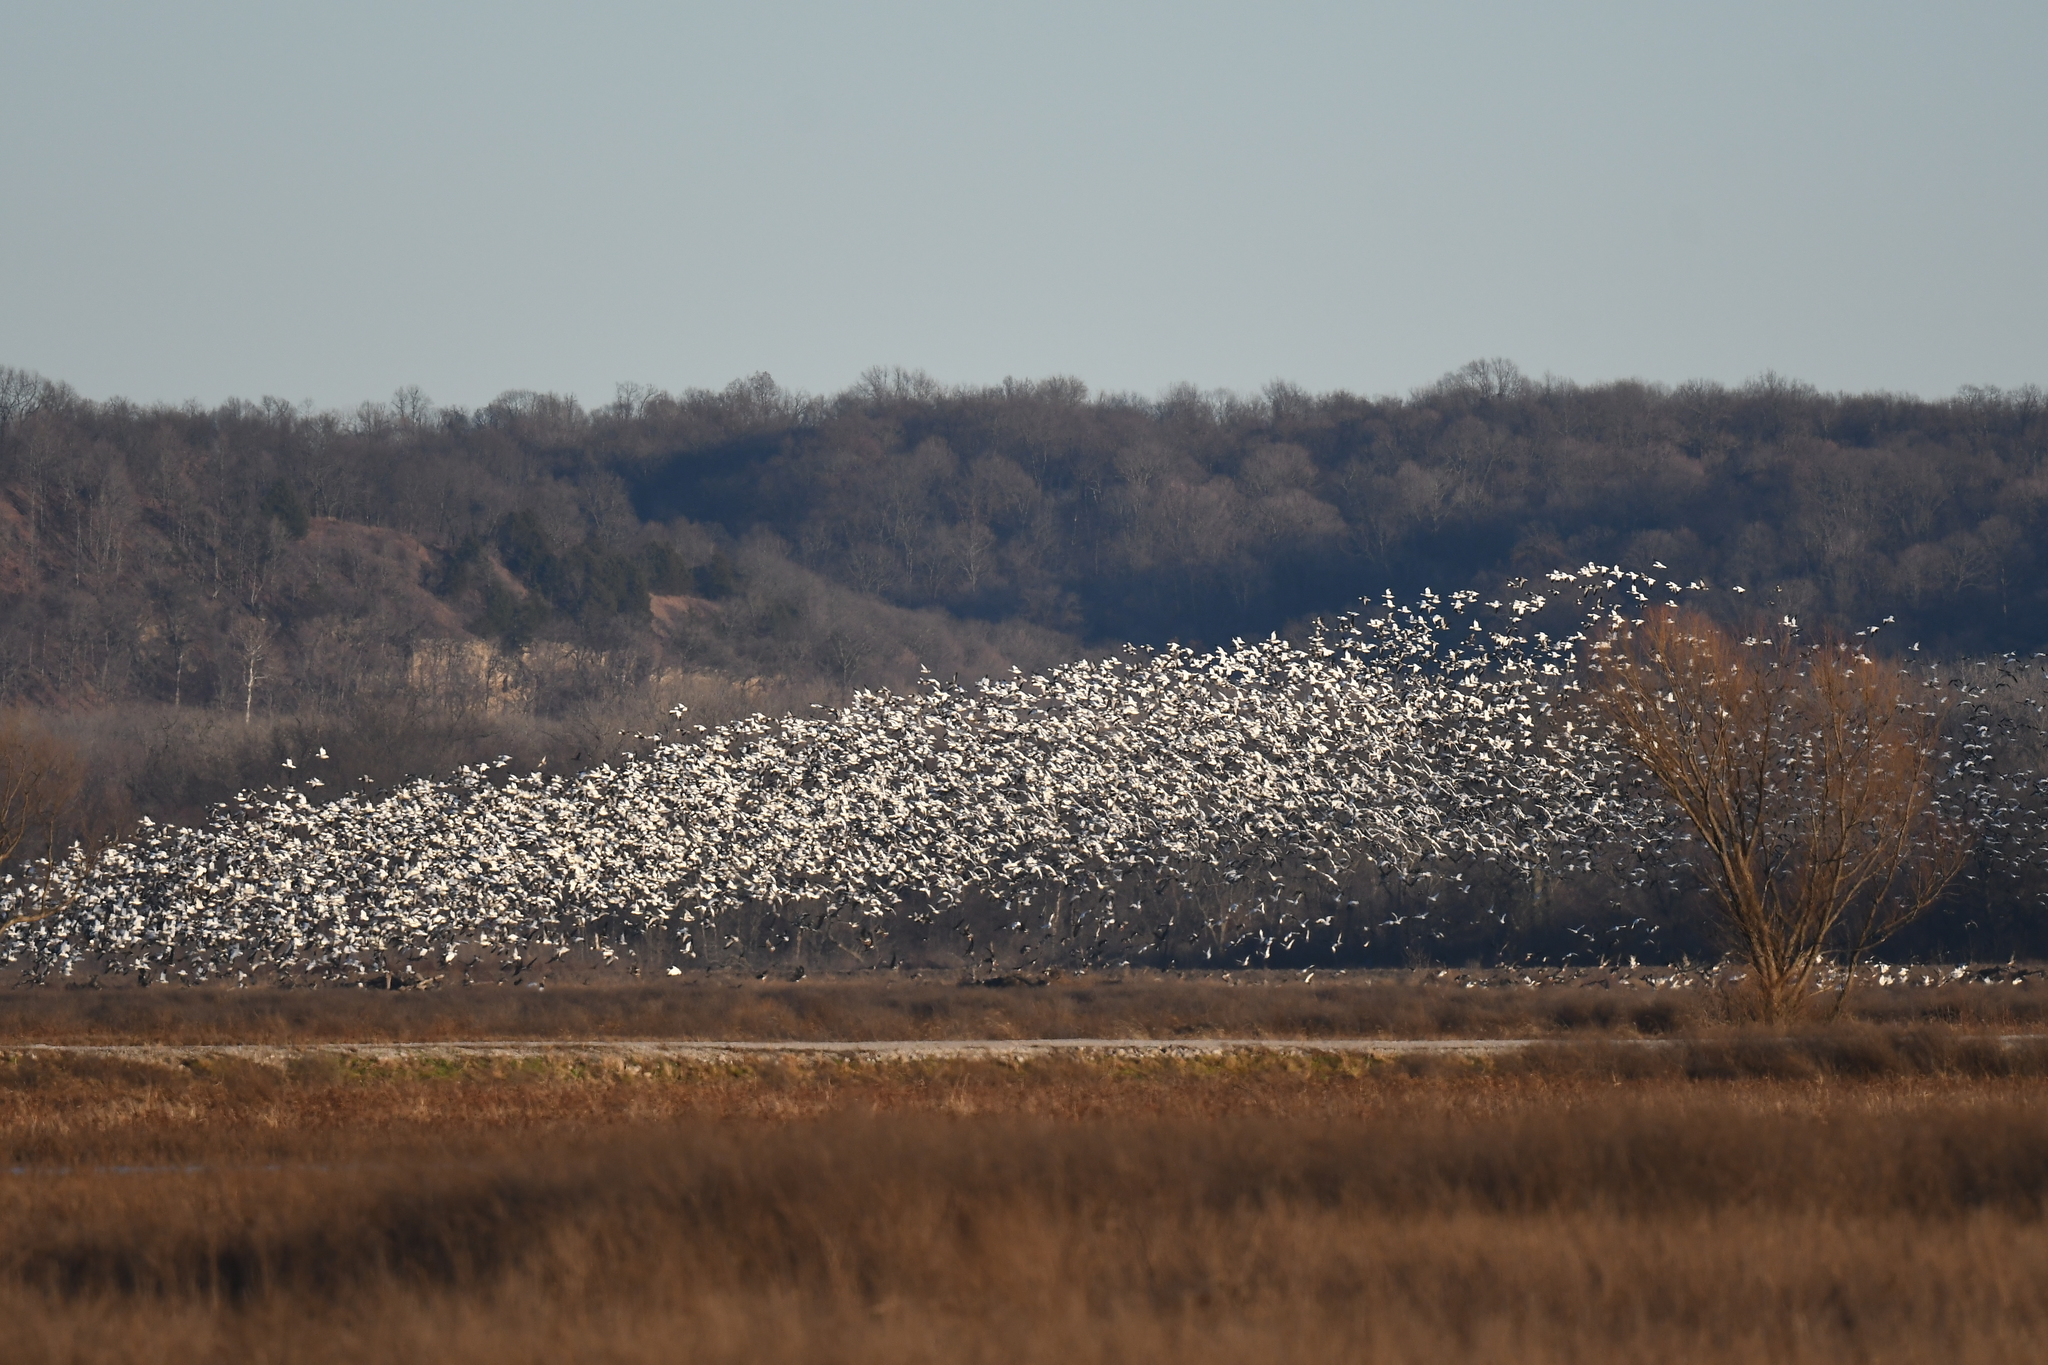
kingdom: Animalia
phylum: Chordata
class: Aves
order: Anseriformes
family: Anatidae
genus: Anser
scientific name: Anser caerulescens
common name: Snow goose
